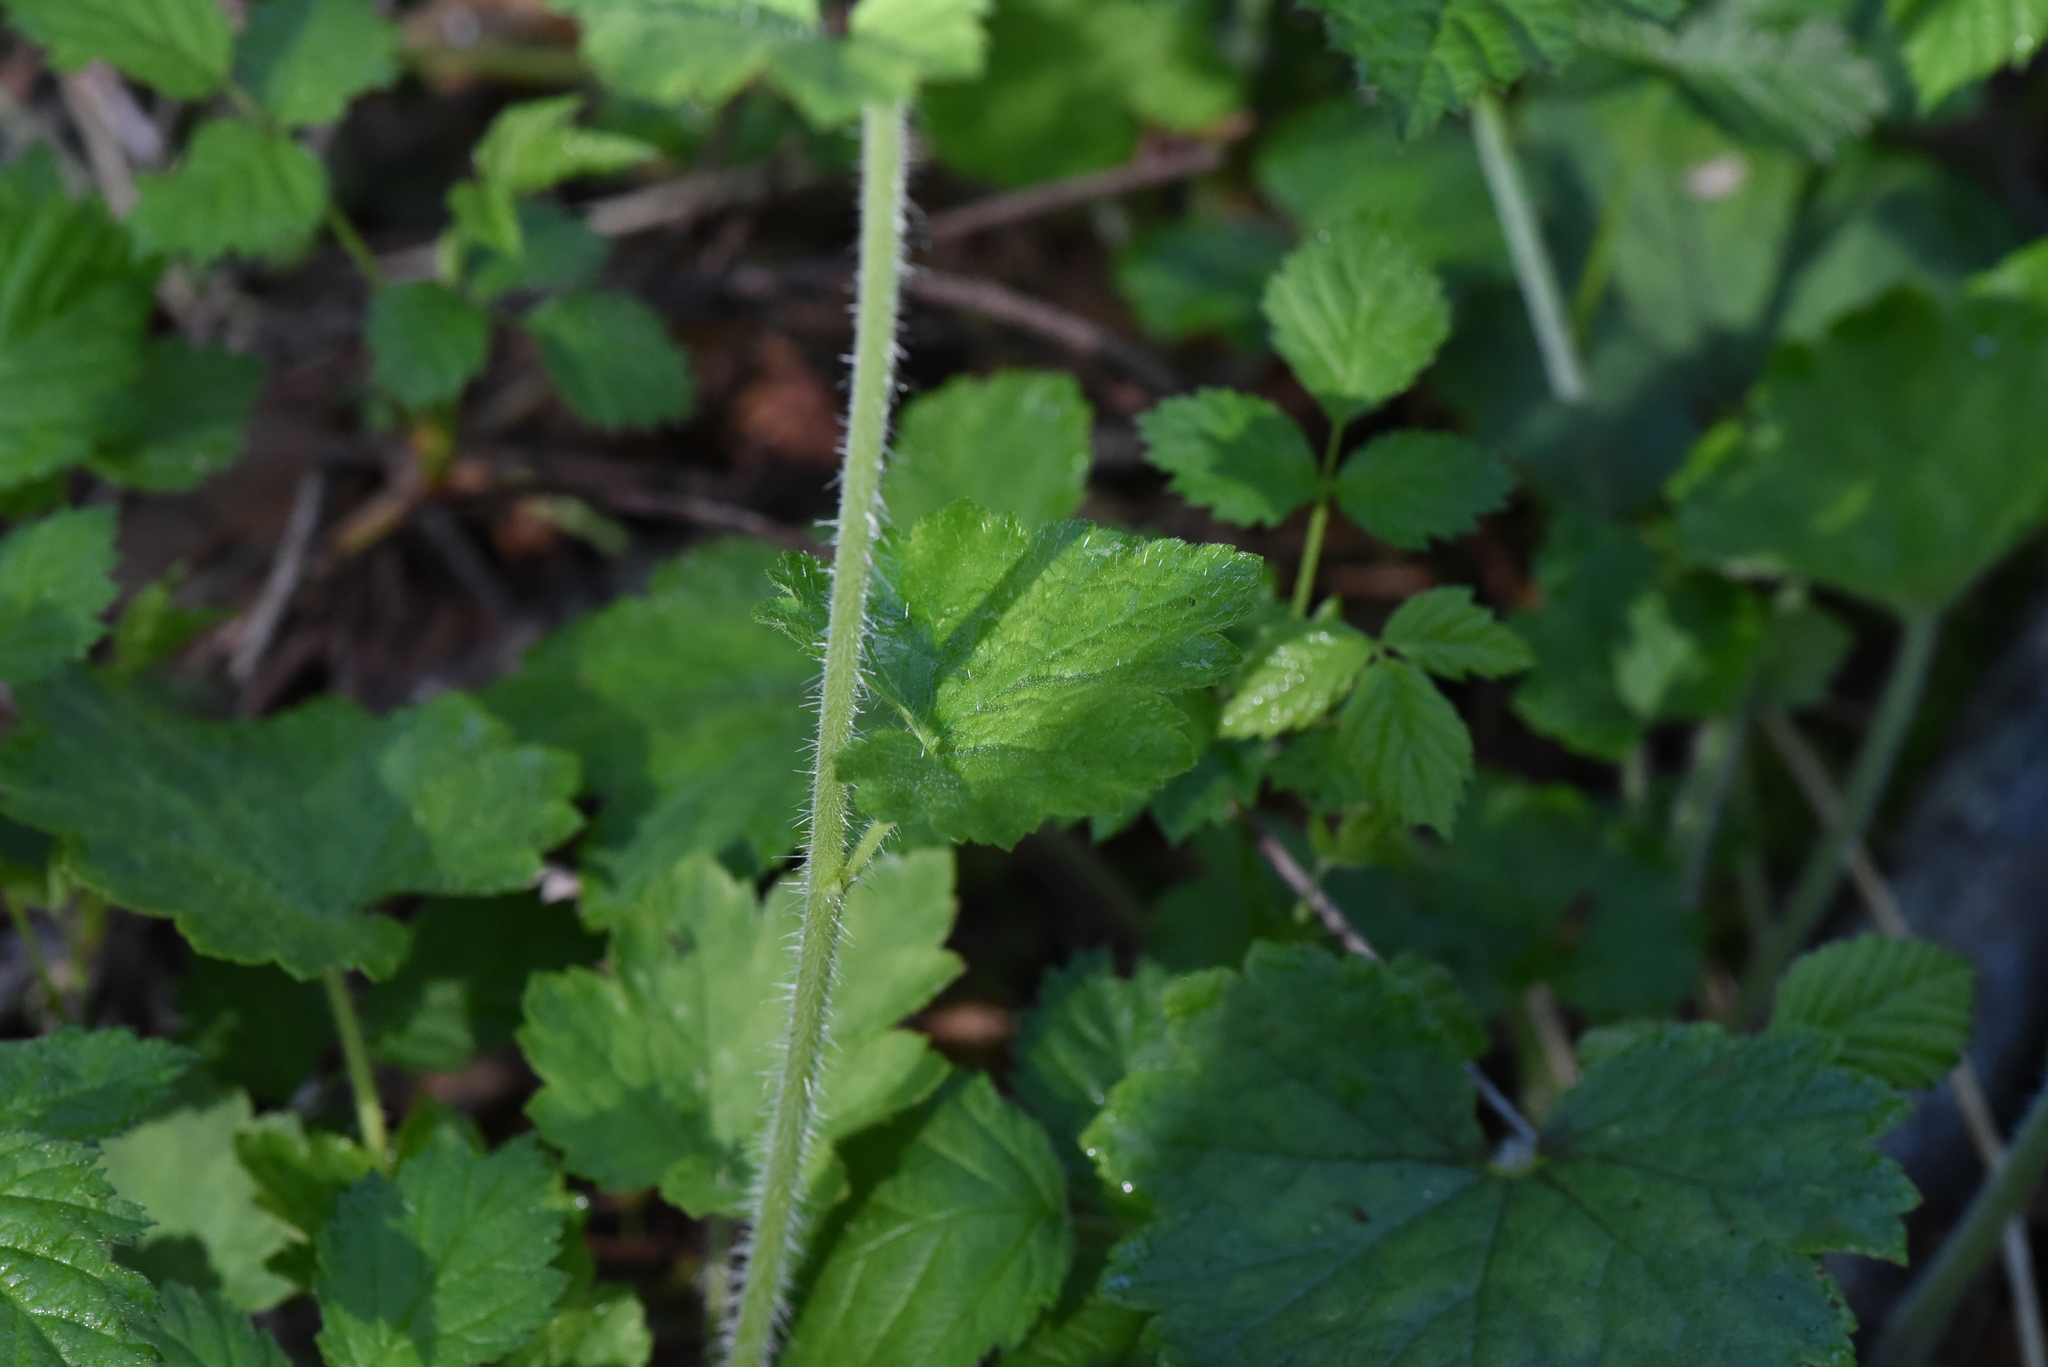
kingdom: Plantae
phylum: Tracheophyta
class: Magnoliopsida
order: Saxifragales
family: Saxifragaceae
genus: Tellima
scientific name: Tellima grandiflora
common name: Fringecups
